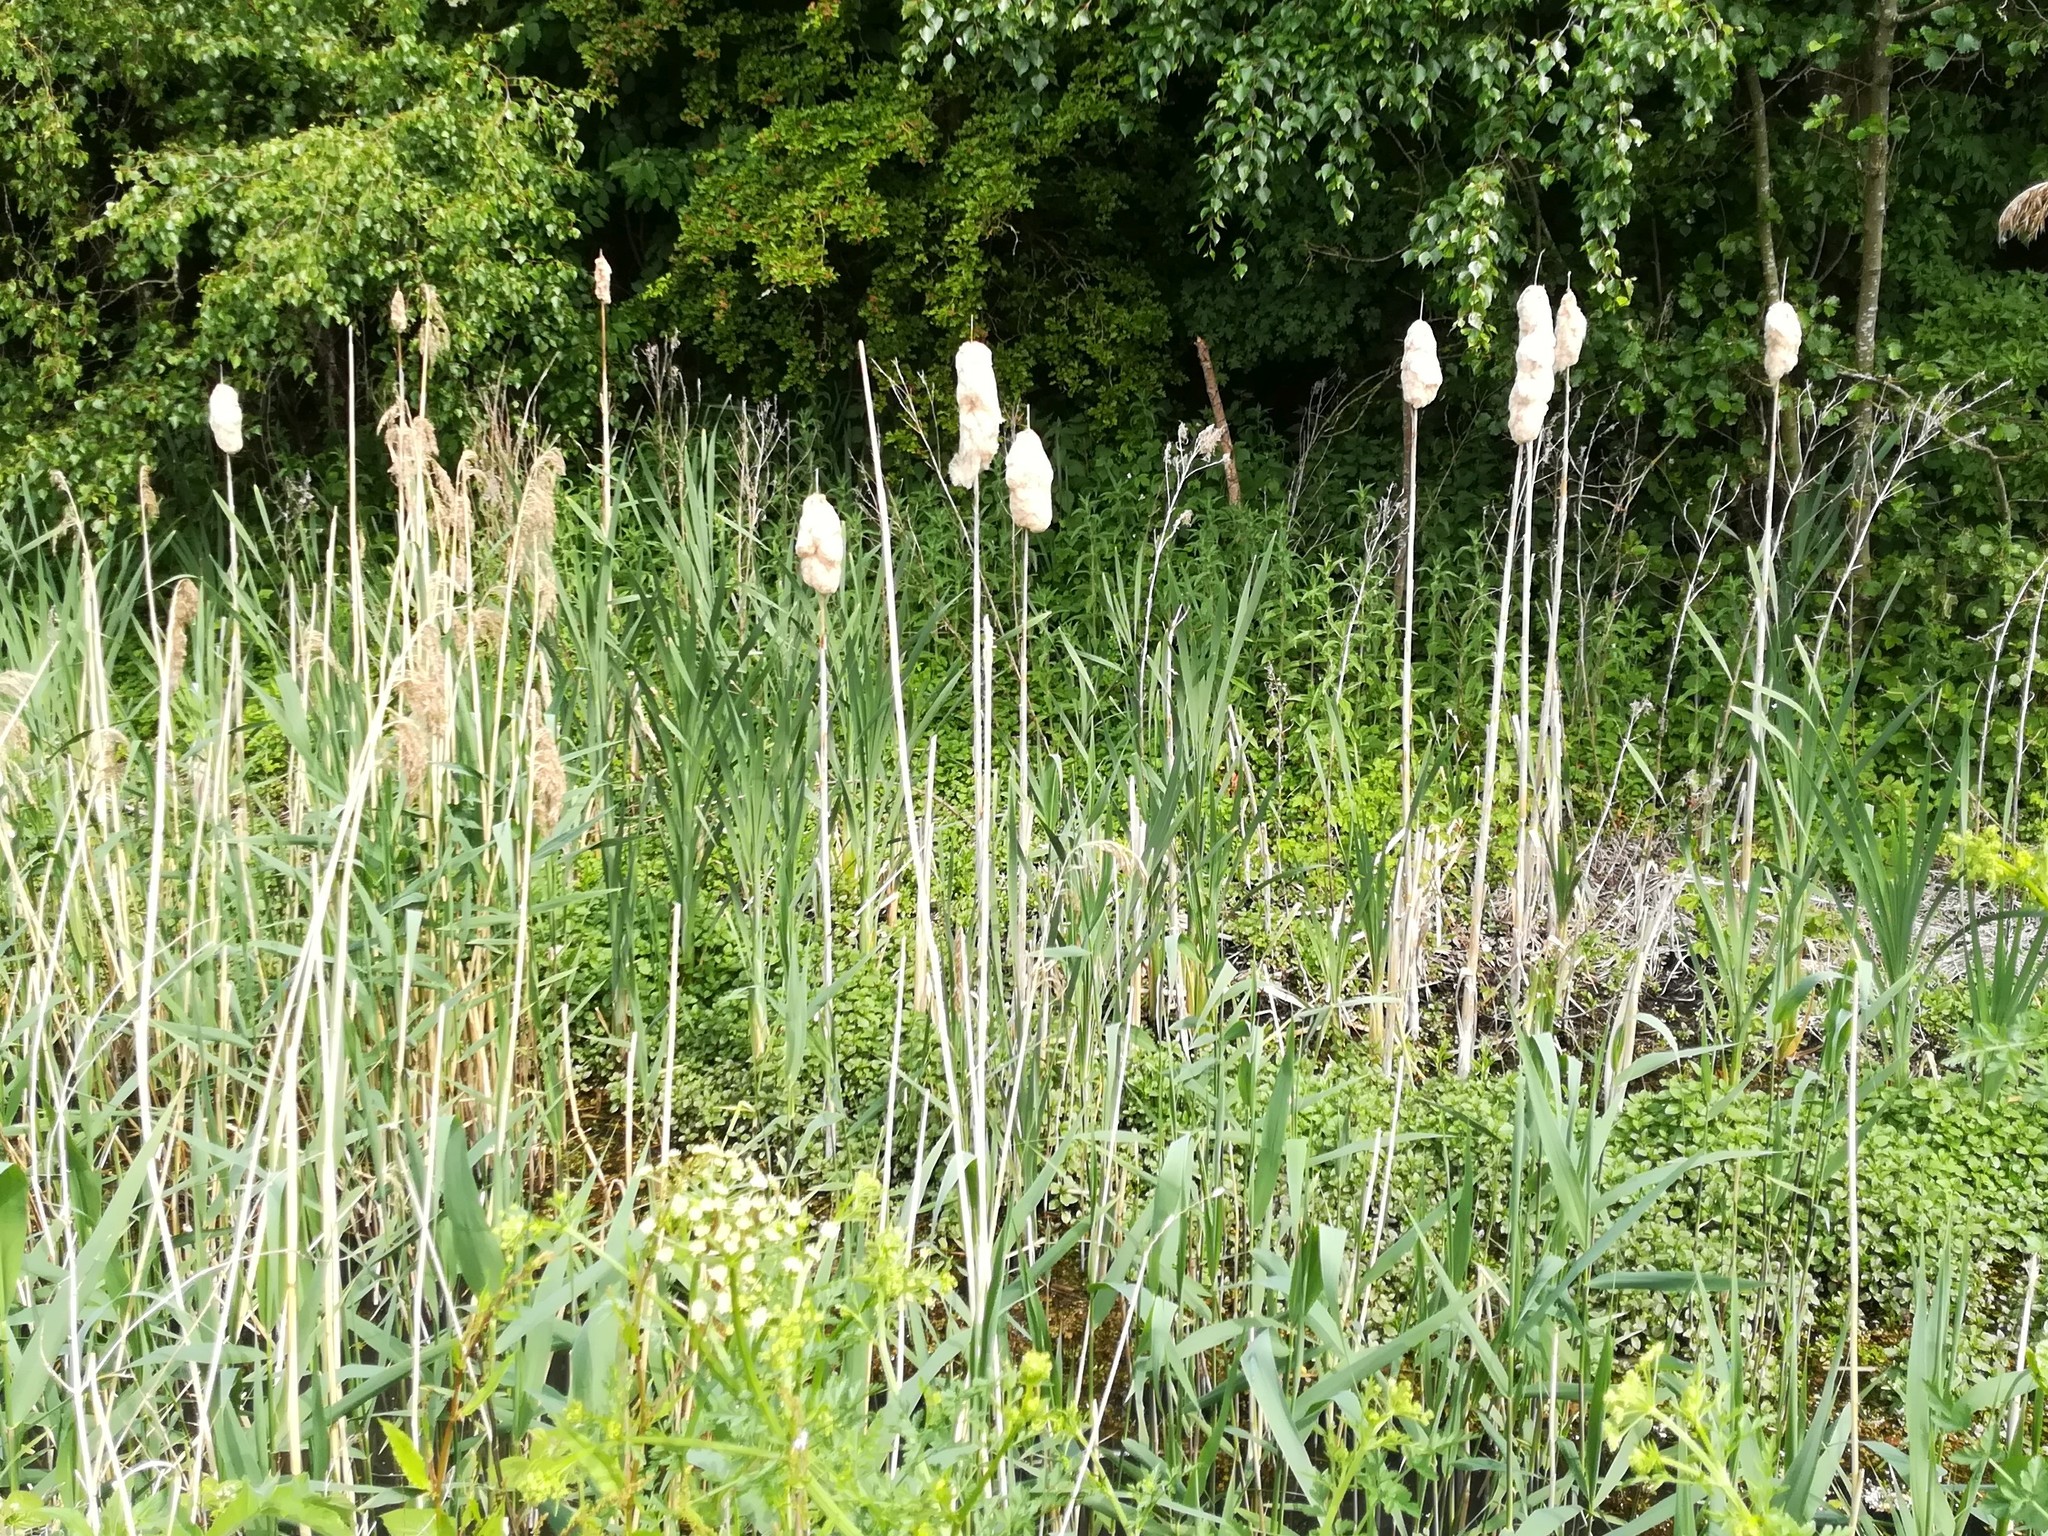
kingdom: Plantae
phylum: Tracheophyta
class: Liliopsida
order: Poales
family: Typhaceae
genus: Typha
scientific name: Typha latifolia
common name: Broadleaf cattail
